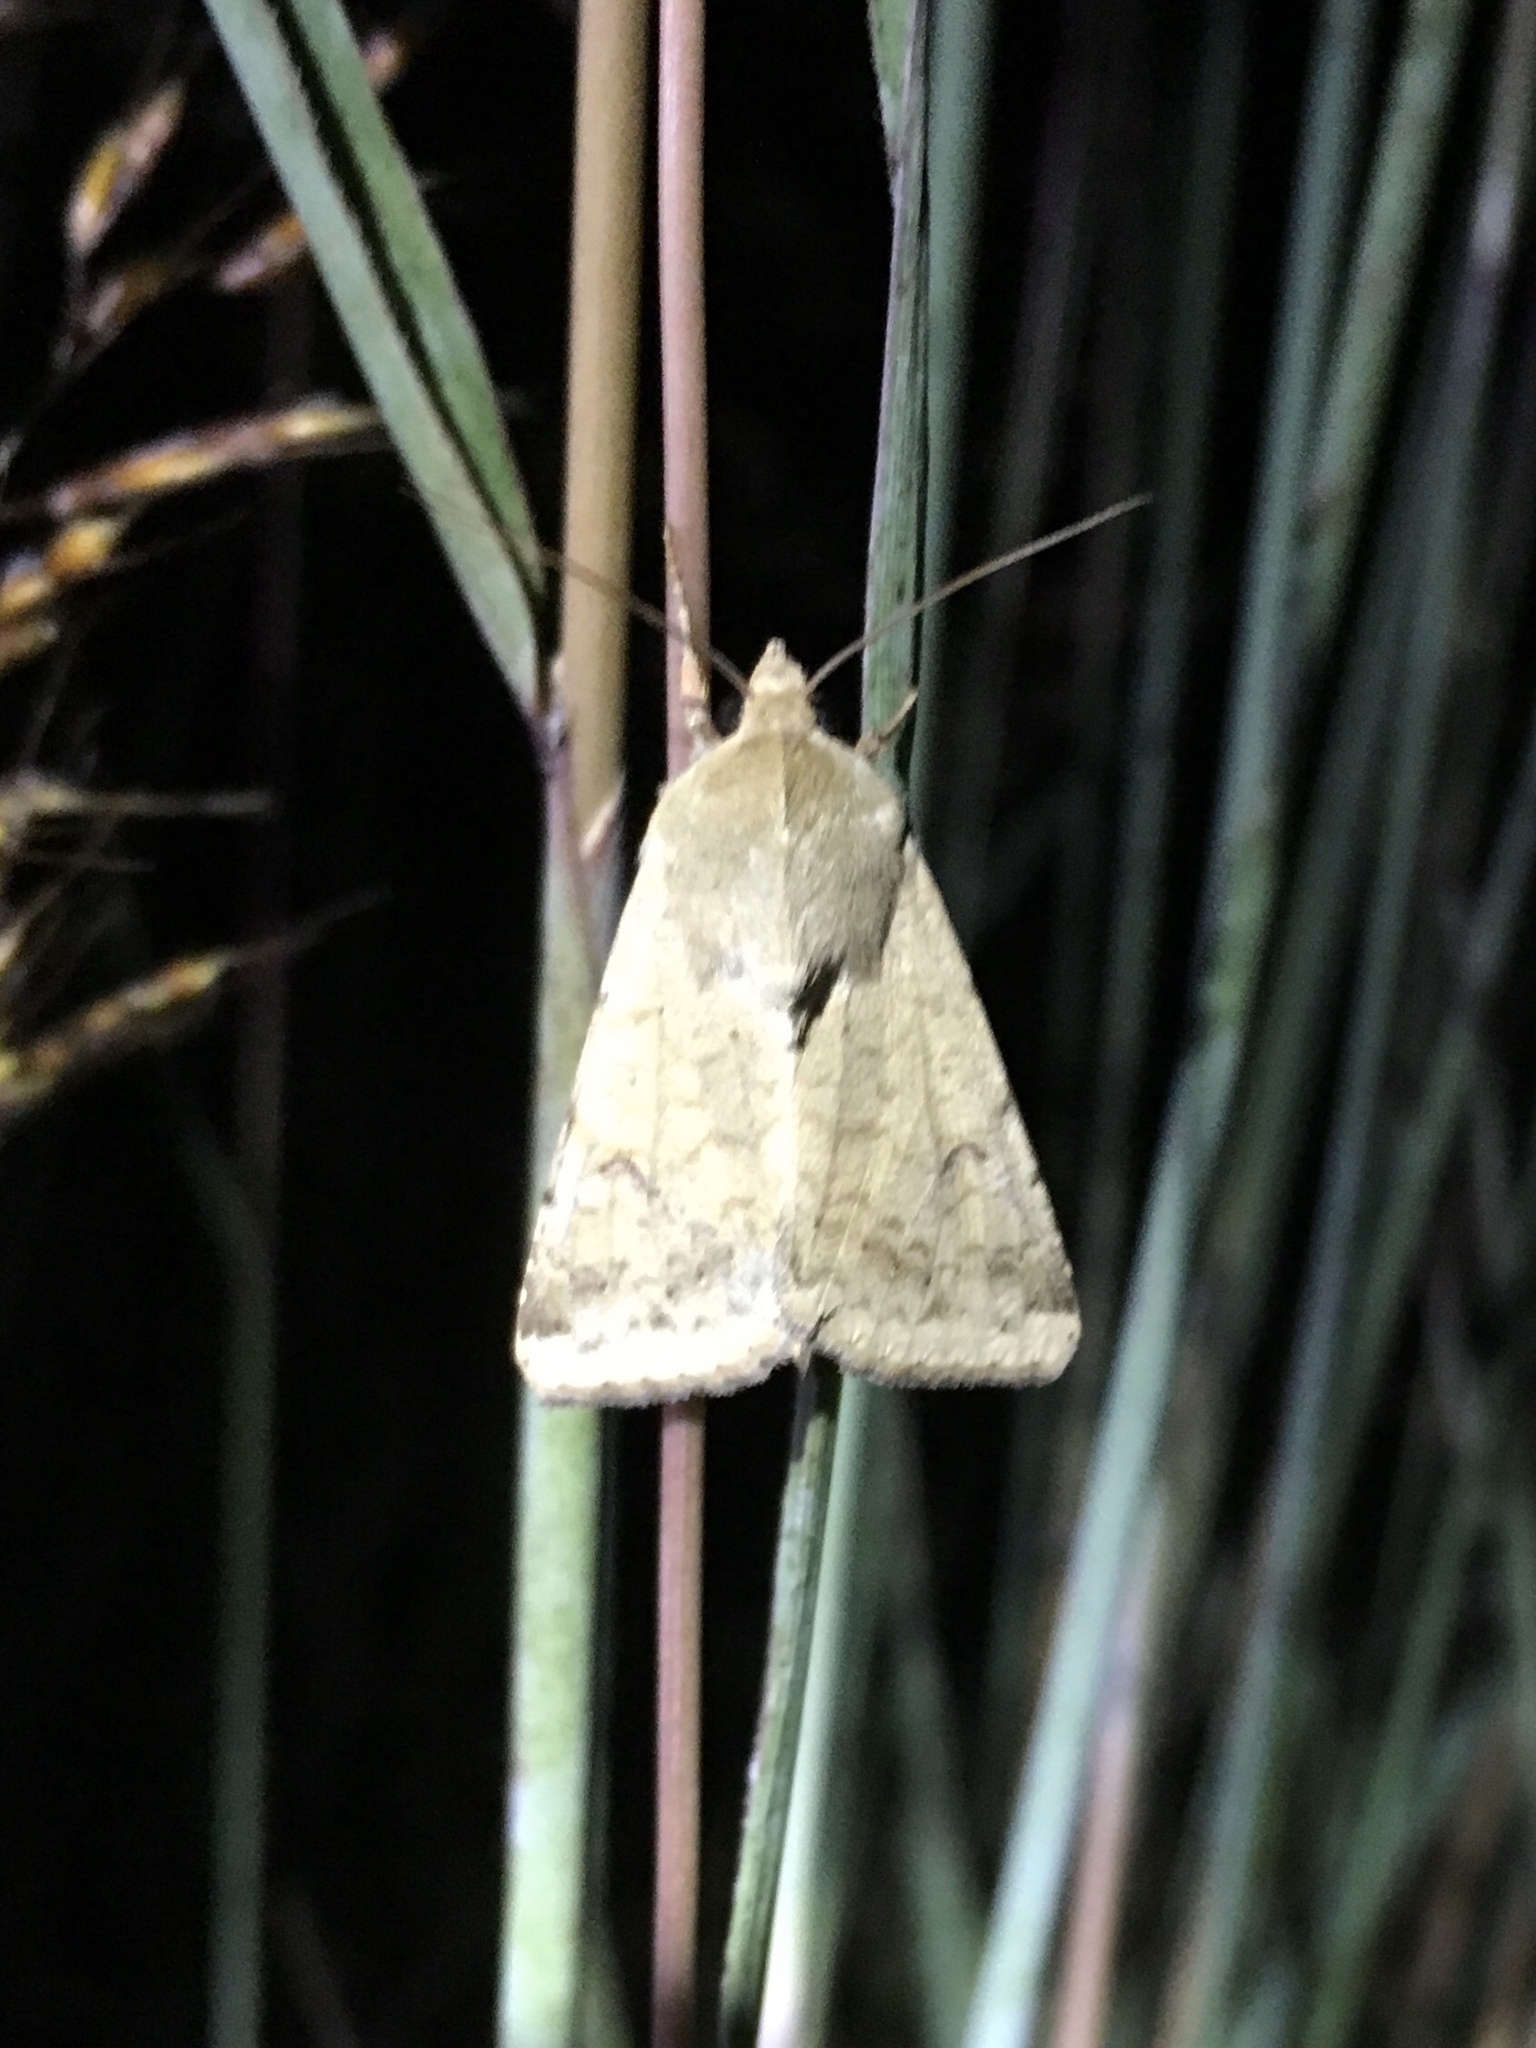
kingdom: Animalia
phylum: Arthropoda
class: Insecta
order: Lepidoptera
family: Noctuidae
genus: Helicoverpa
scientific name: Helicoverpa zea
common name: Bollworm
